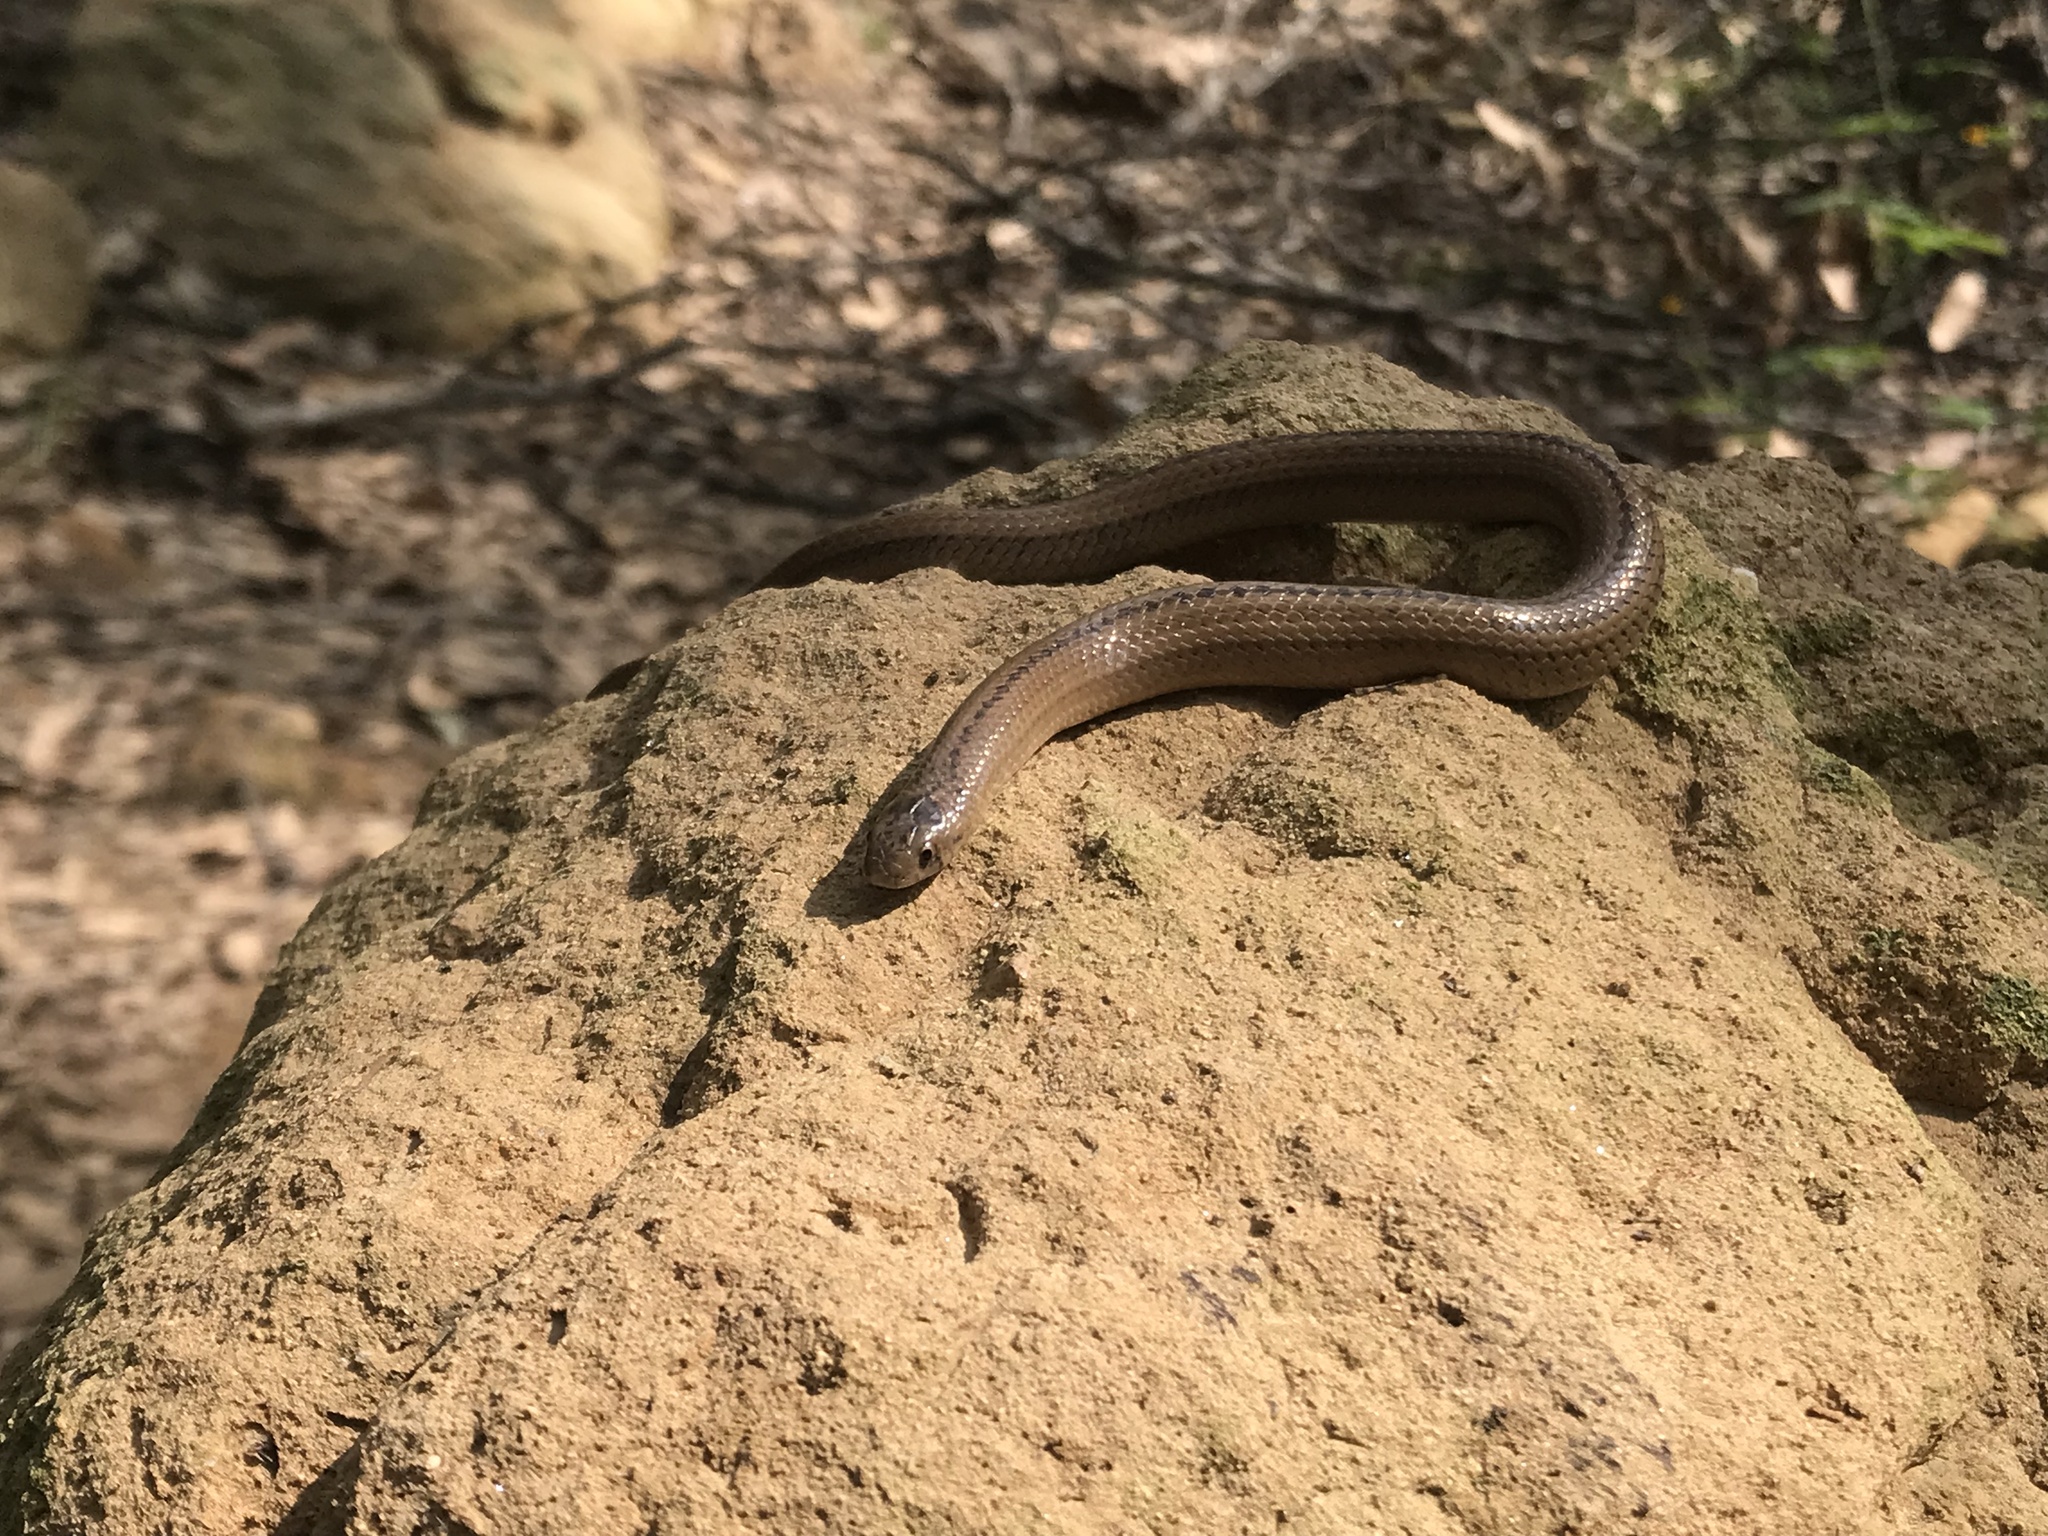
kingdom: Animalia
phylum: Chordata
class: Squamata
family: Colubridae
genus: Conopsis
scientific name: Conopsis lineata
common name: Lined tolucan earthsnake
